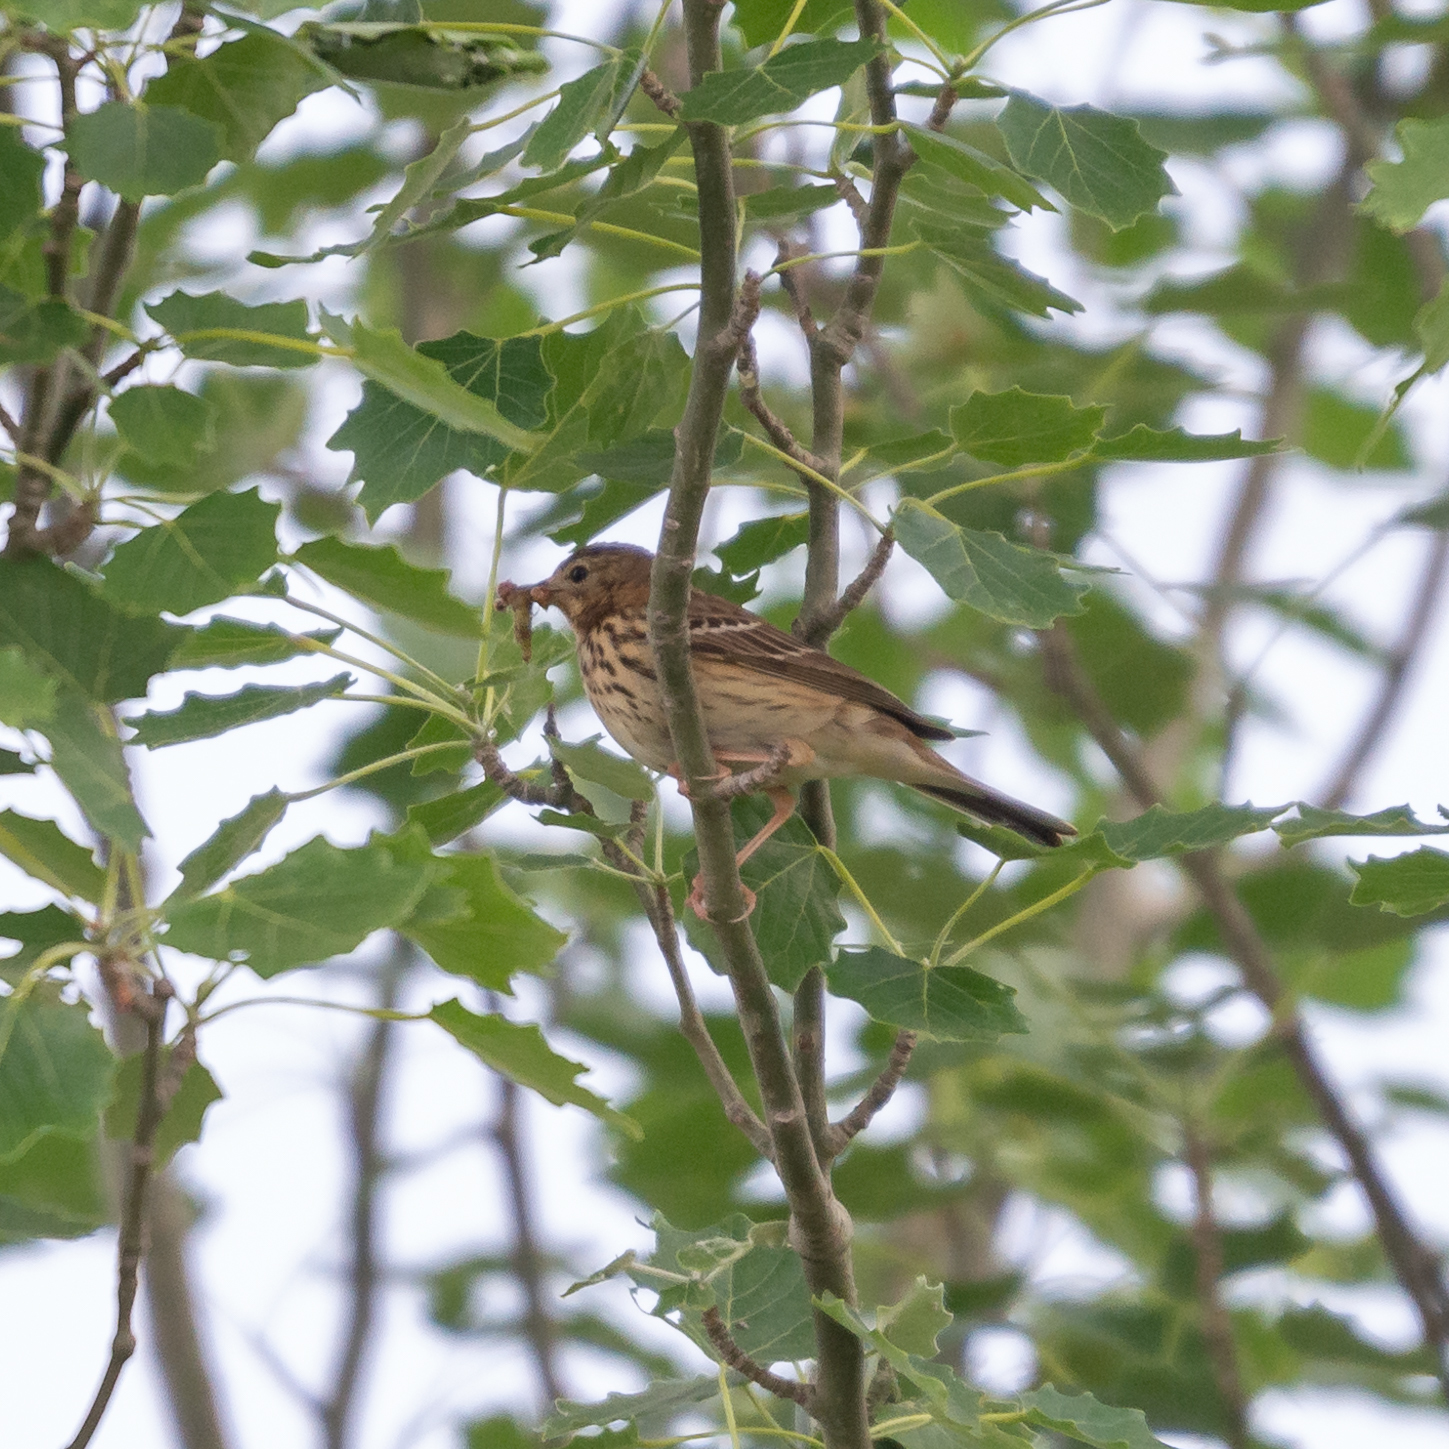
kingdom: Animalia
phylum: Chordata
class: Aves
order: Passeriformes
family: Motacillidae
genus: Anthus
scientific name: Anthus trivialis
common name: Tree pipit
